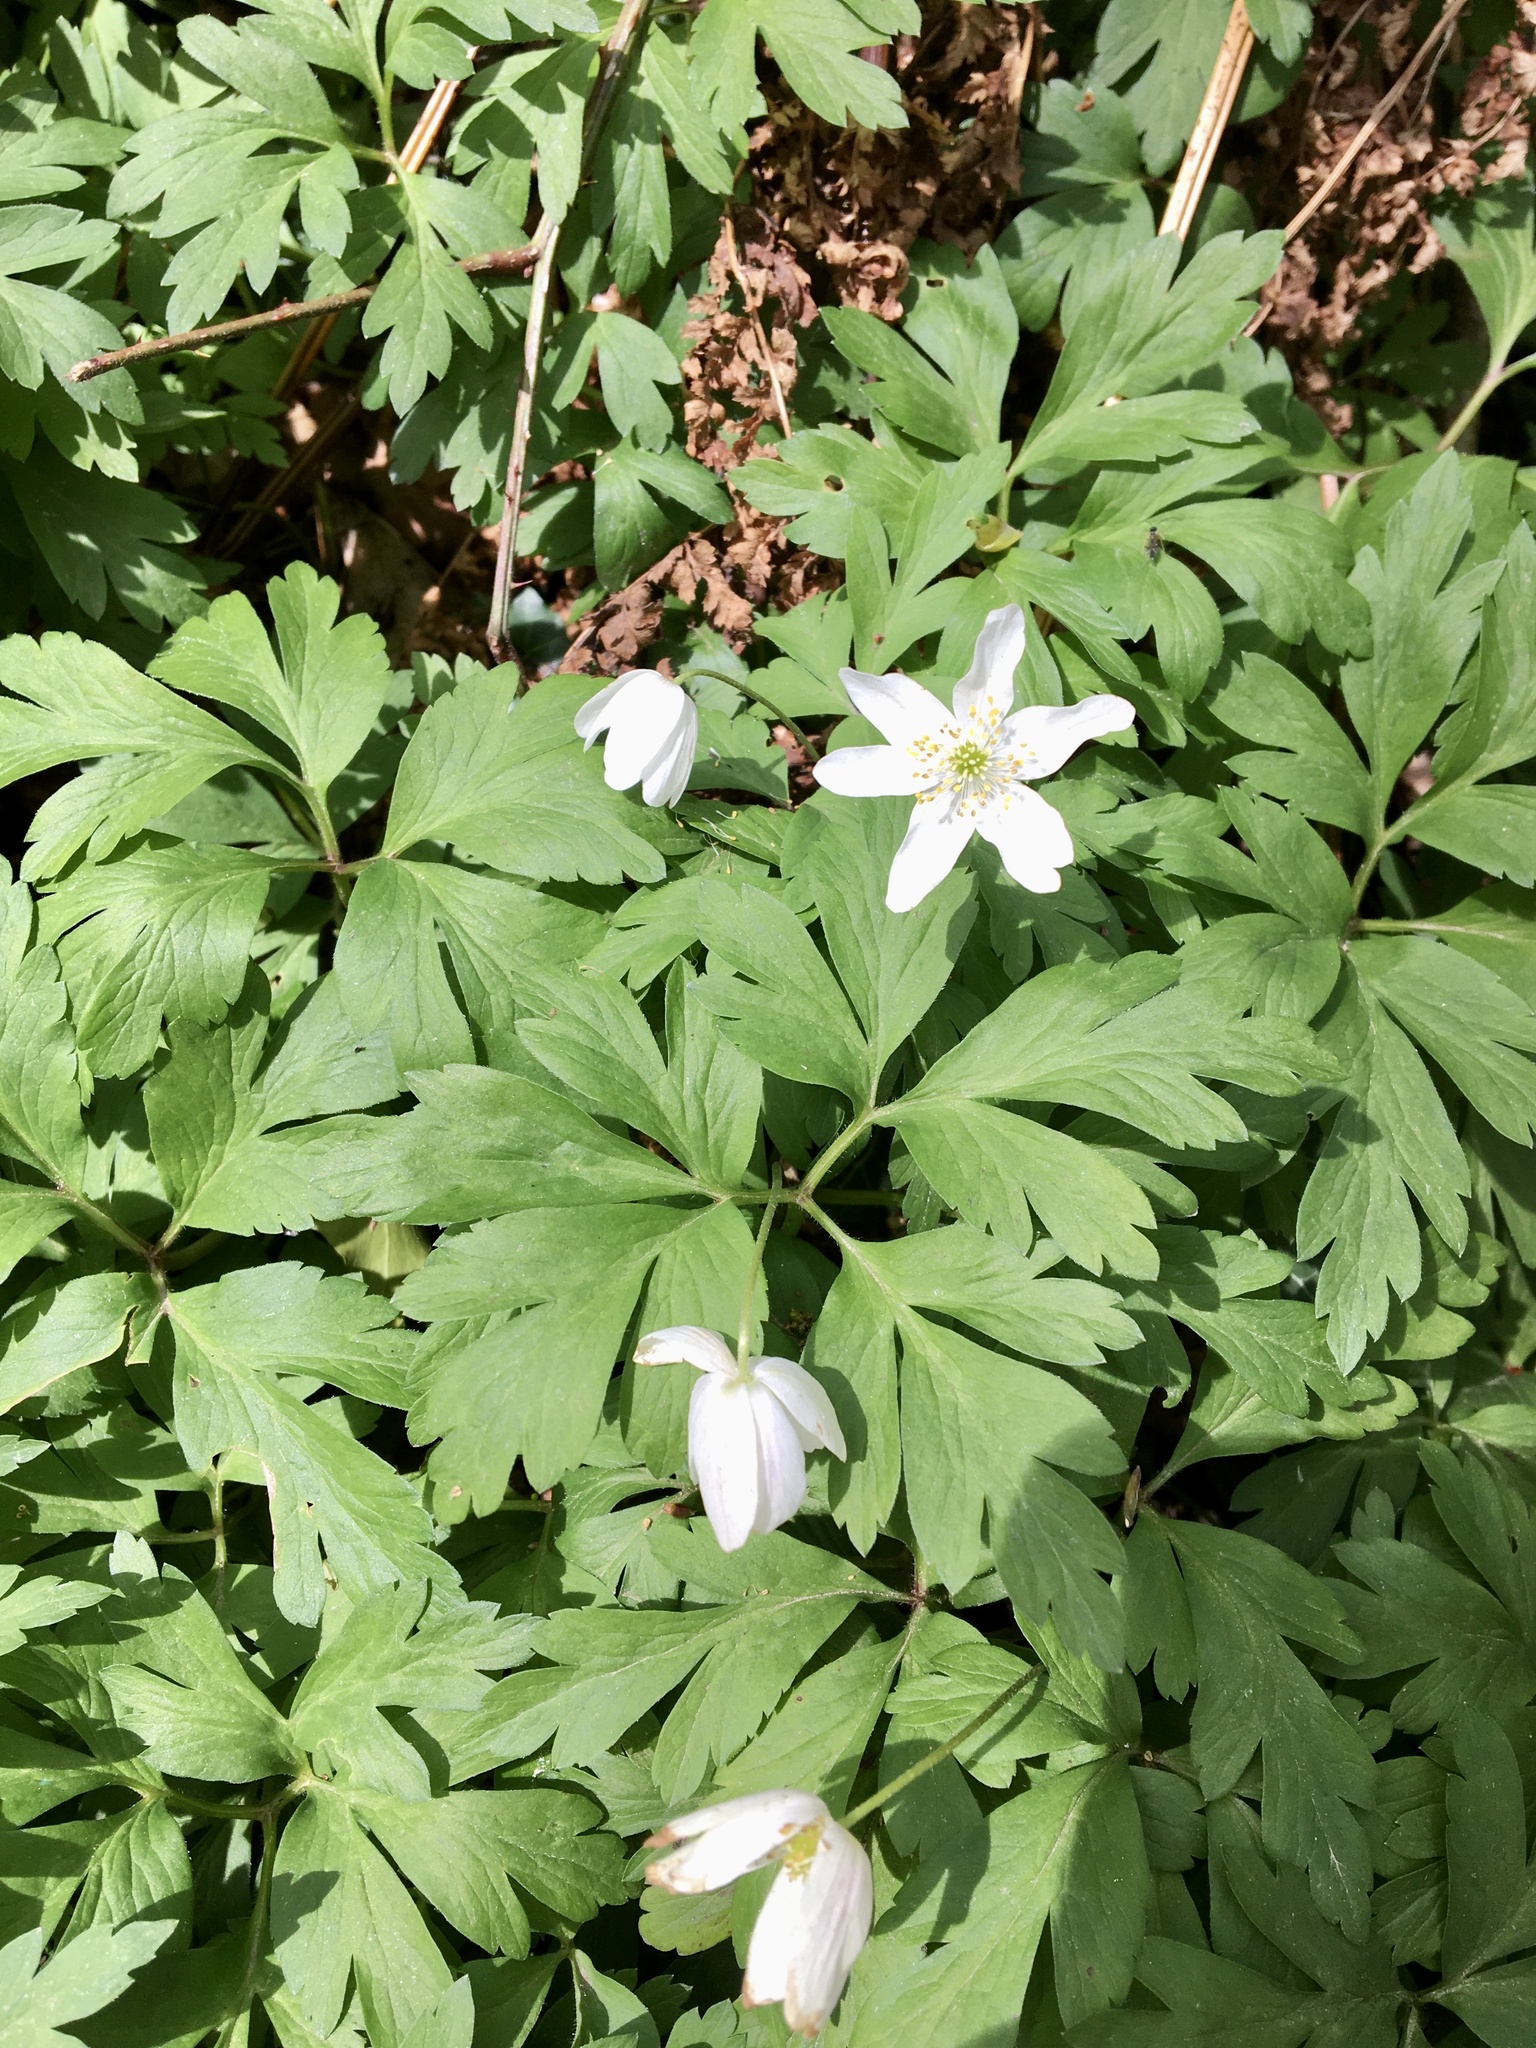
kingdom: Plantae
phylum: Tracheophyta
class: Magnoliopsida
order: Ranunculales
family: Ranunculaceae
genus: Anemone
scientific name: Anemone nemorosa
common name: Wood anemone
